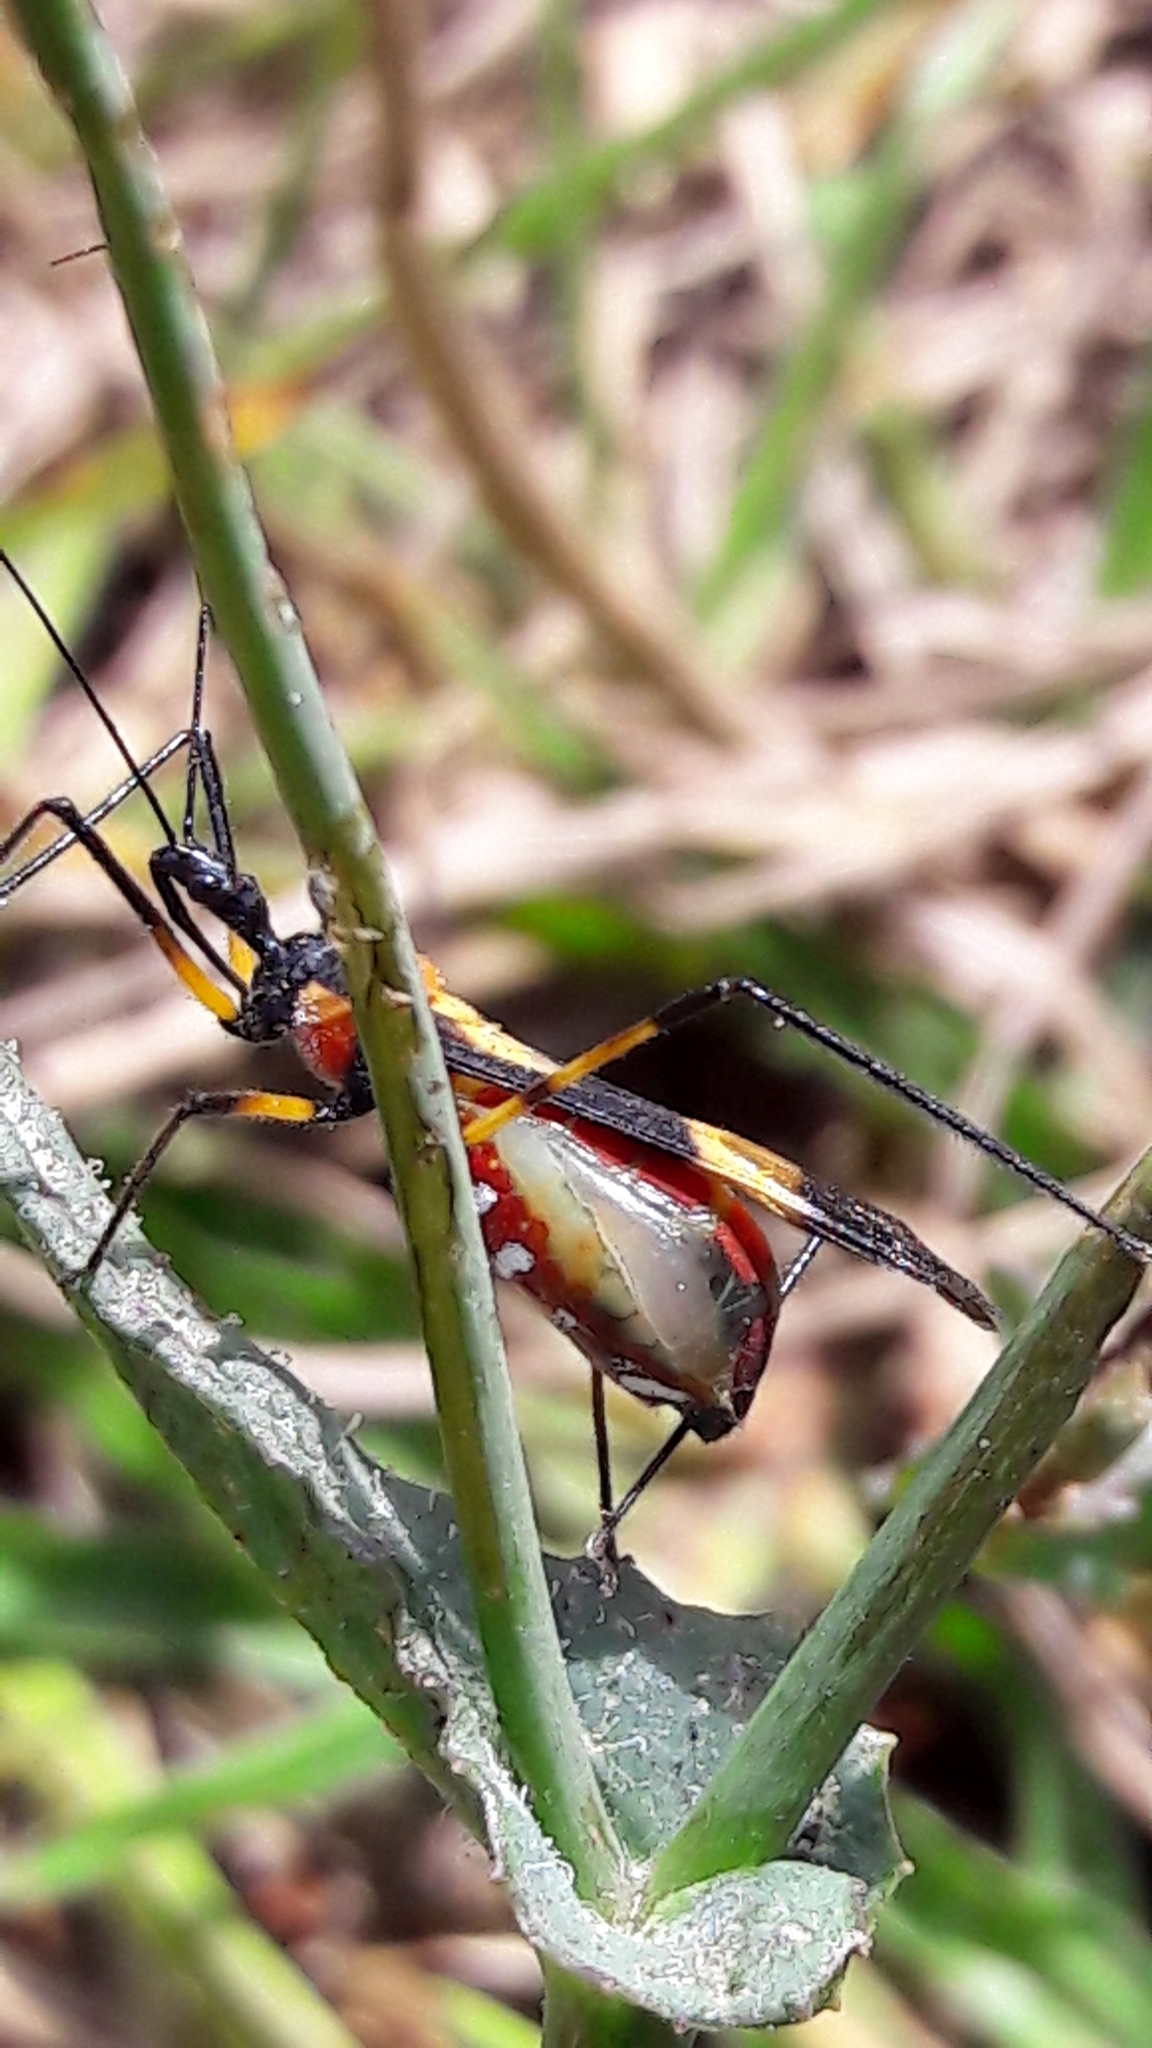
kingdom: Animalia
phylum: Arthropoda
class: Insecta
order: Hemiptera
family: Reduviidae
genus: Zelus
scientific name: Zelus errans
